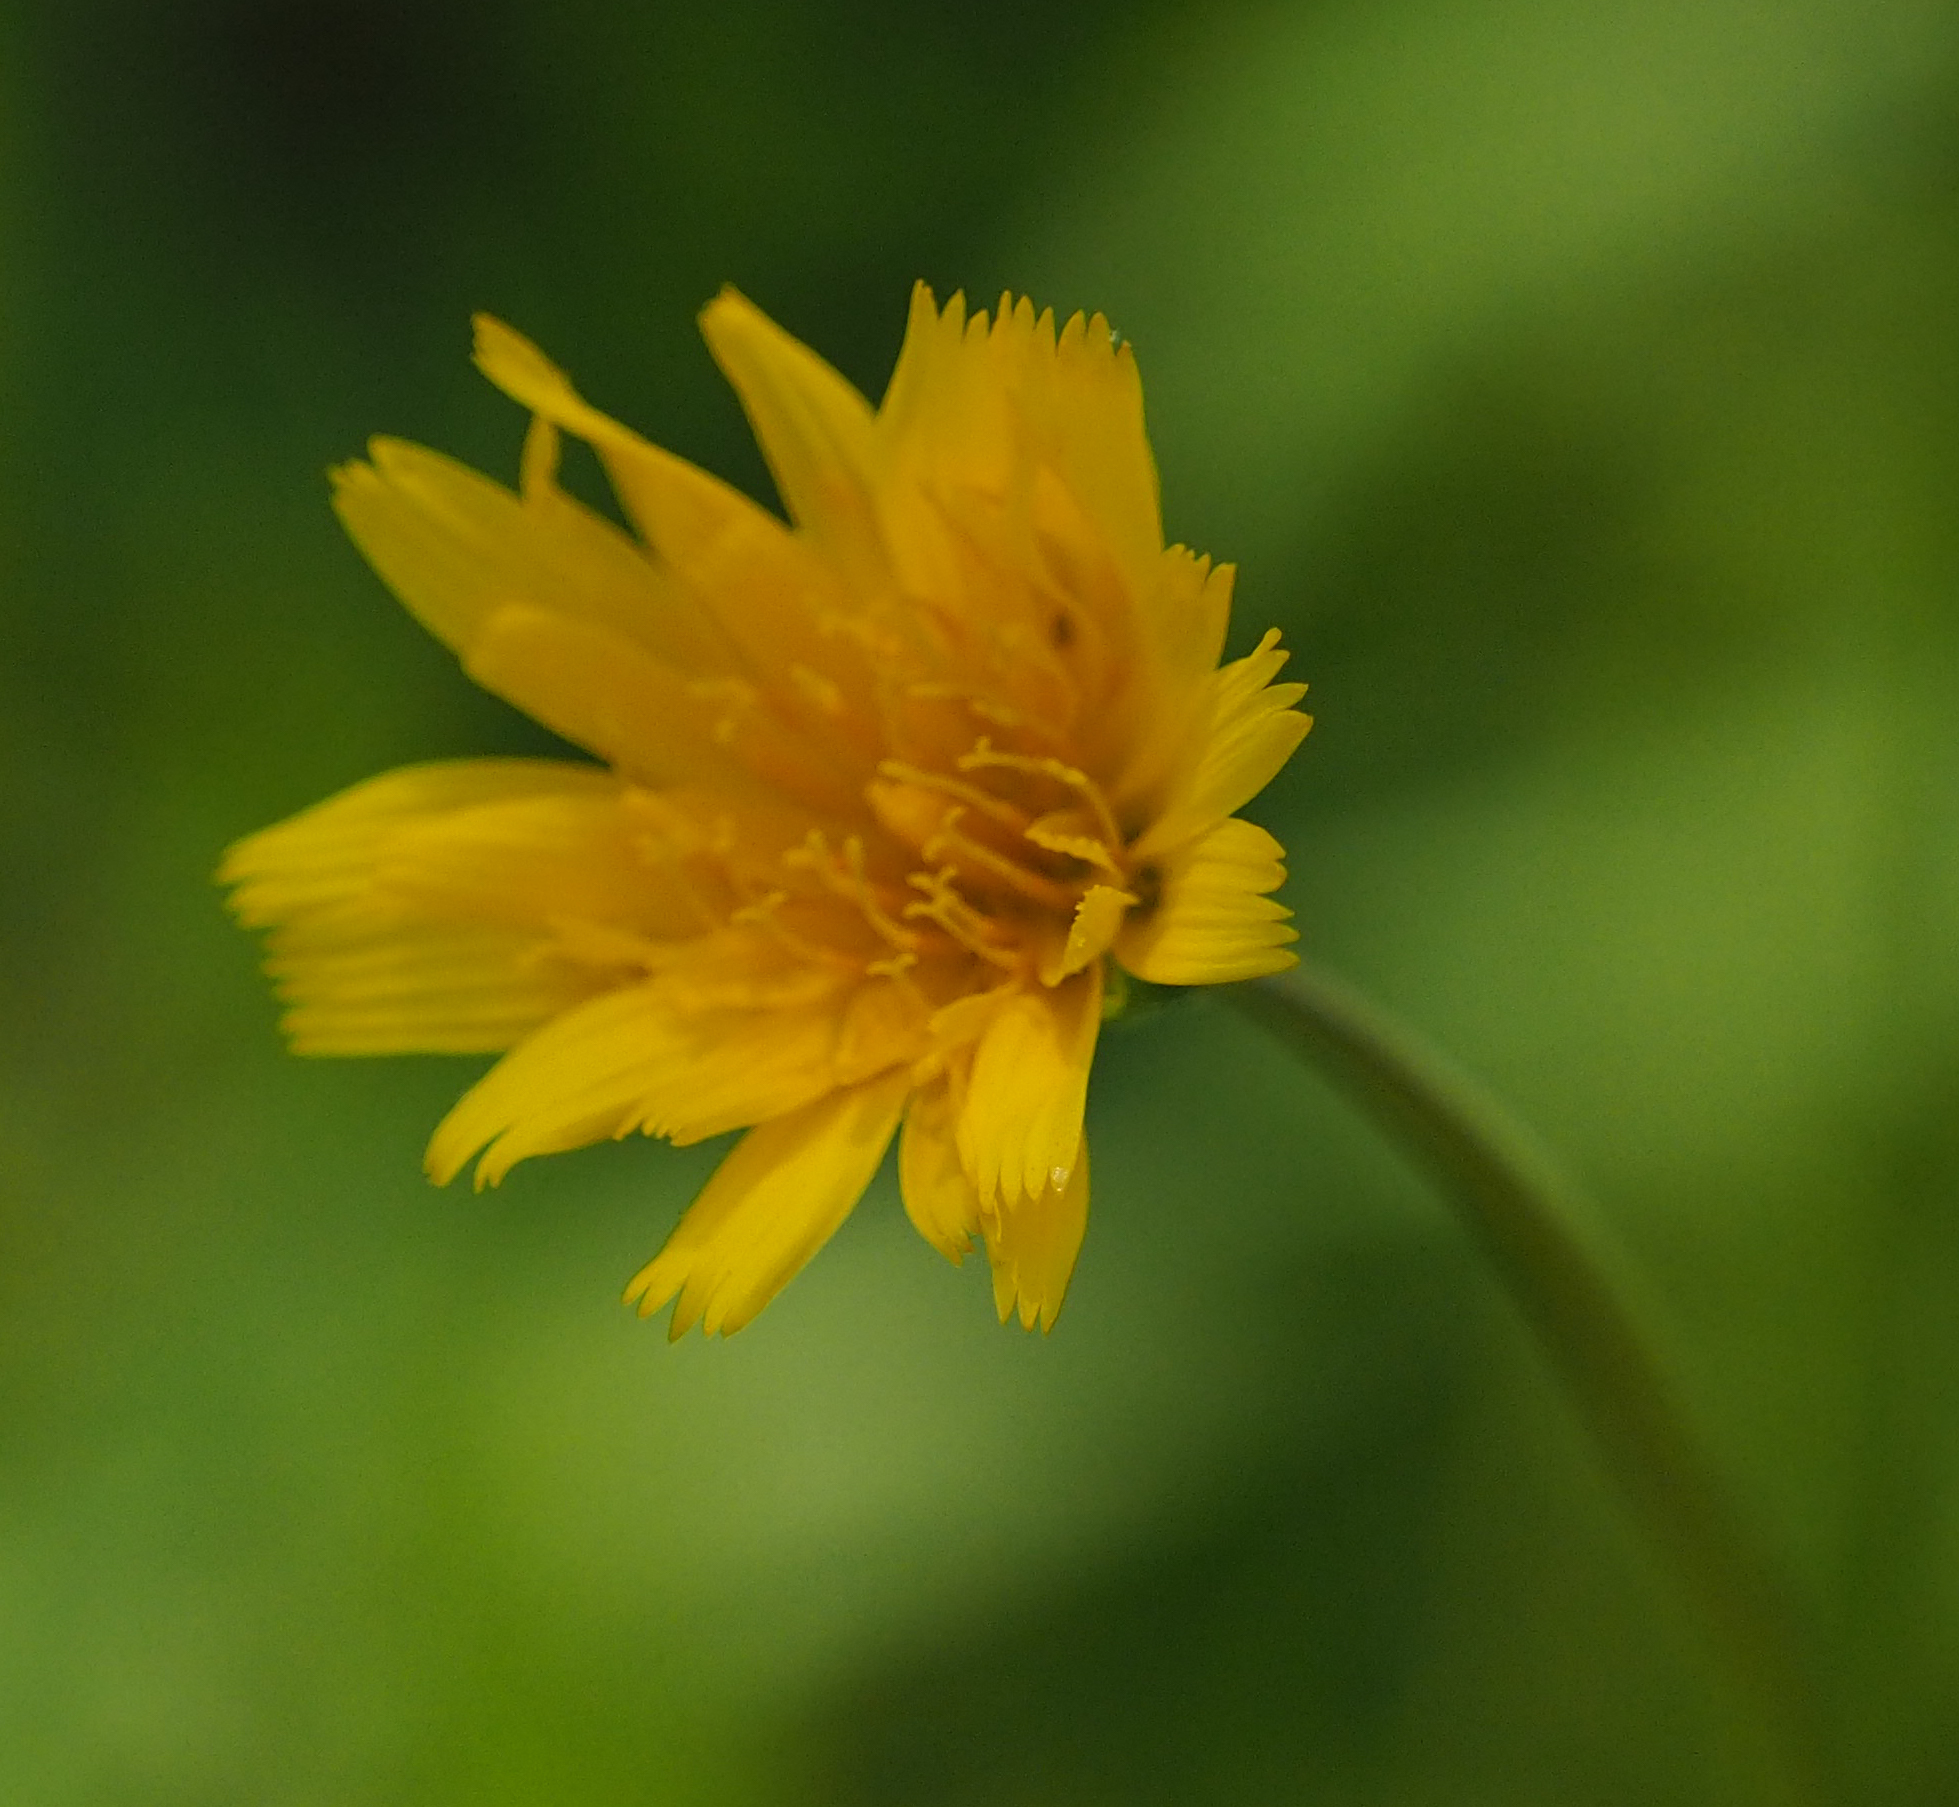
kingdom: Plantae
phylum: Tracheophyta
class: Magnoliopsida
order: Asterales
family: Asteraceae
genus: Krigia
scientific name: Krigia dandelion
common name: Colonial dwarf-dandelion
